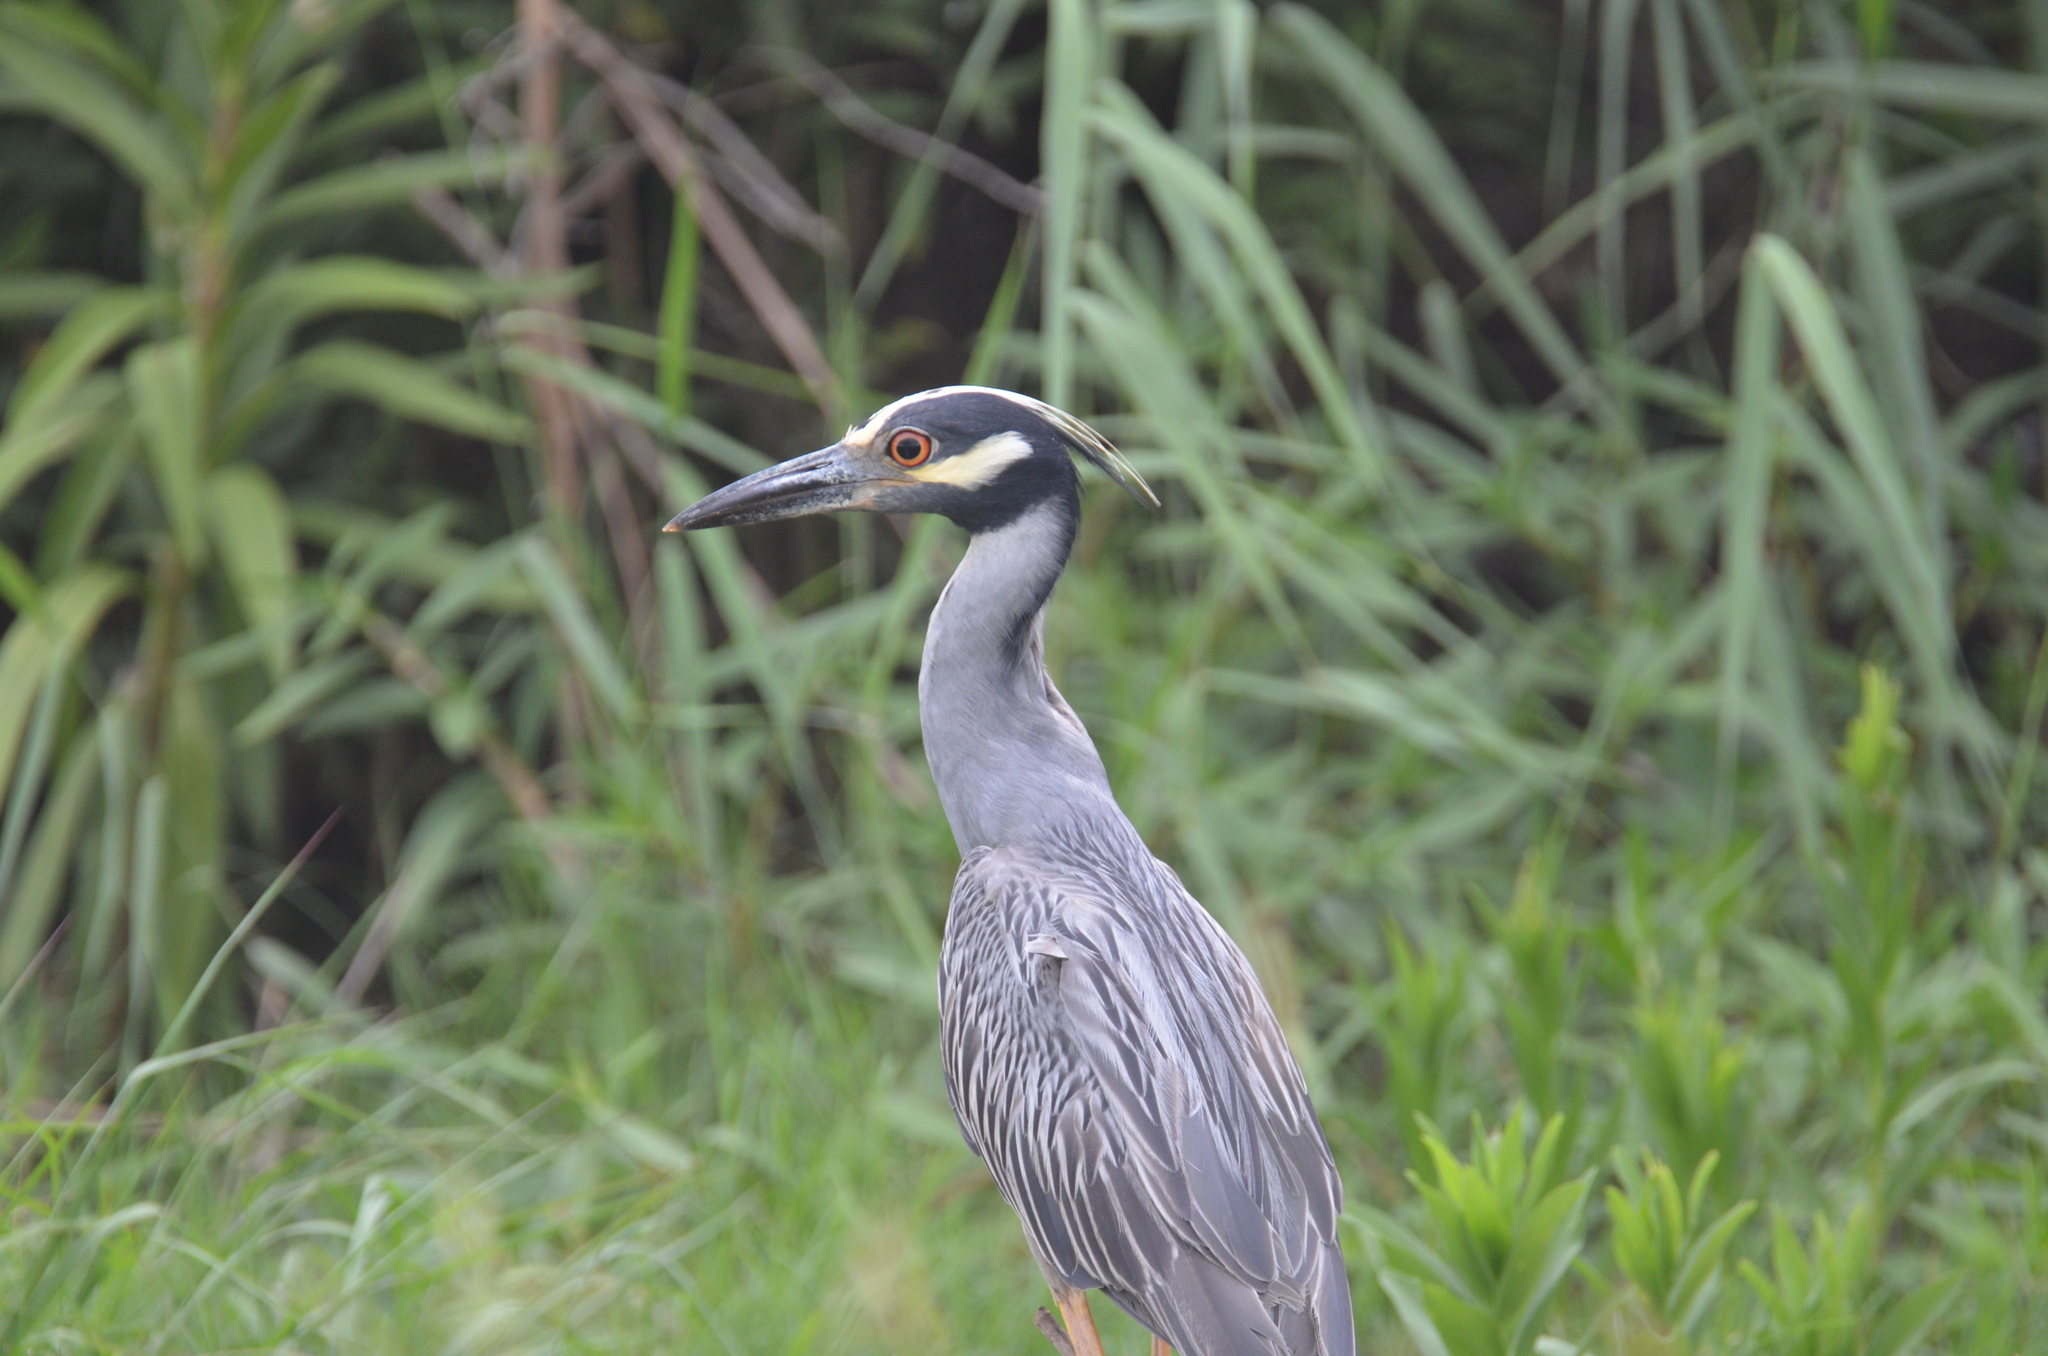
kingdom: Animalia
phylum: Chordata
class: Aves
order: Pelecaniformes
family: Ardeidae
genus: Nyctanassa
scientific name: Nyctanassa violacea
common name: Yellow-crowned night heron
